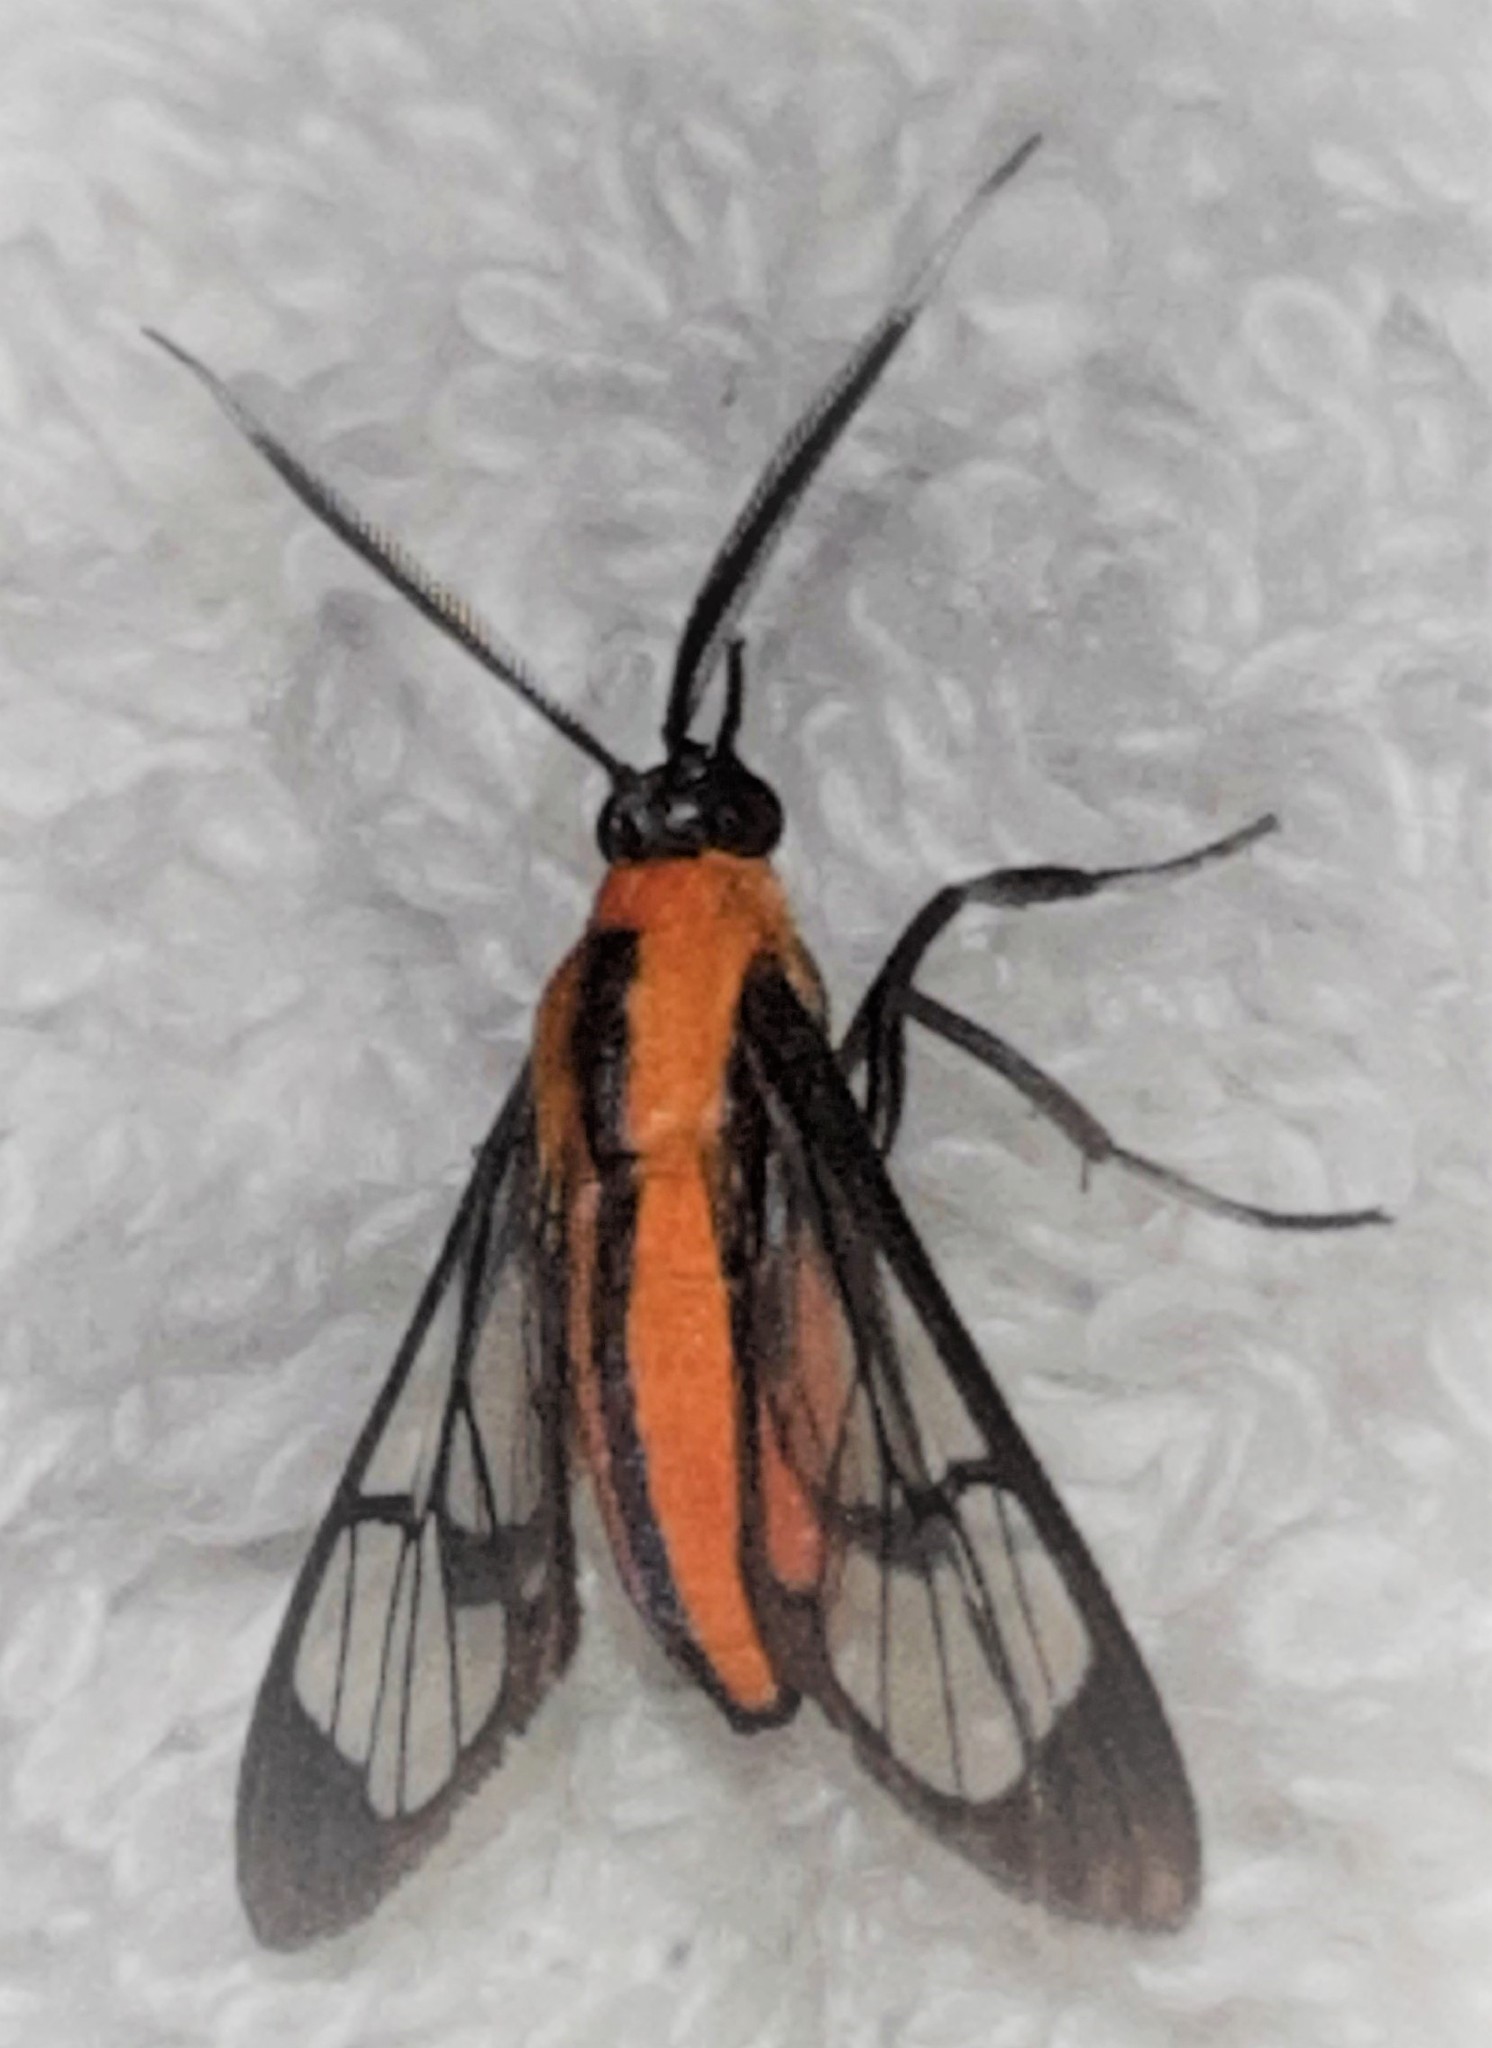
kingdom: Animalia
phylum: Arthropoda
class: Insecta
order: Lepidoptera
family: Erebidae
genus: Loxophlebia
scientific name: Loxophlebia imitata
